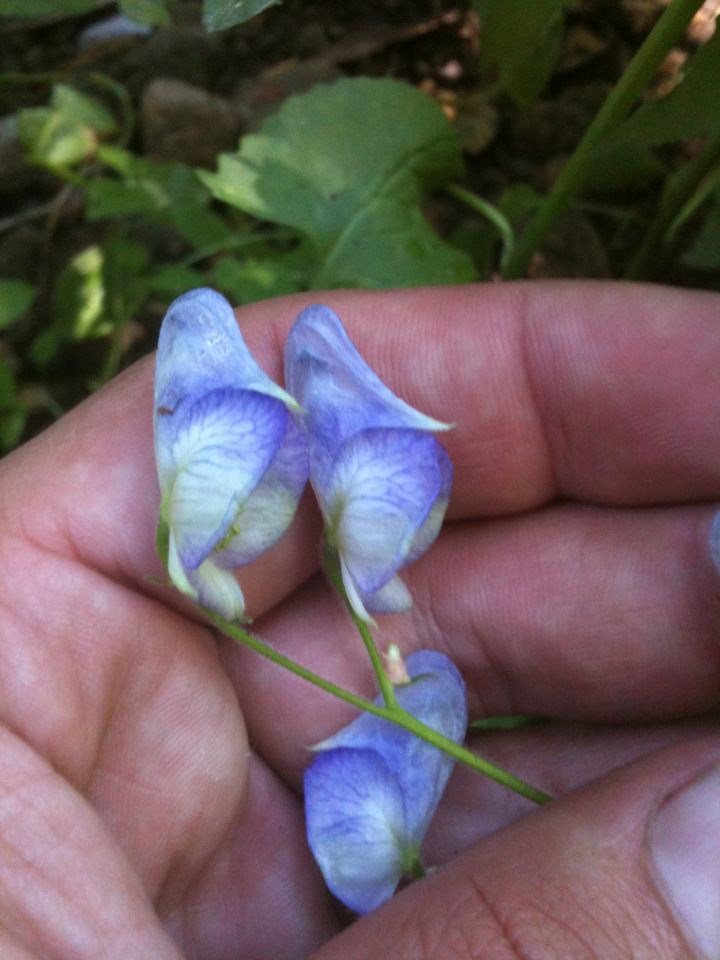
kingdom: Plantae
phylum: Tracheophyta
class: Magnoliopsida
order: Ranunculales
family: Ranunculaceae
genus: Aconitum
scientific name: Aconitum columbianum
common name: Columbia aconite
